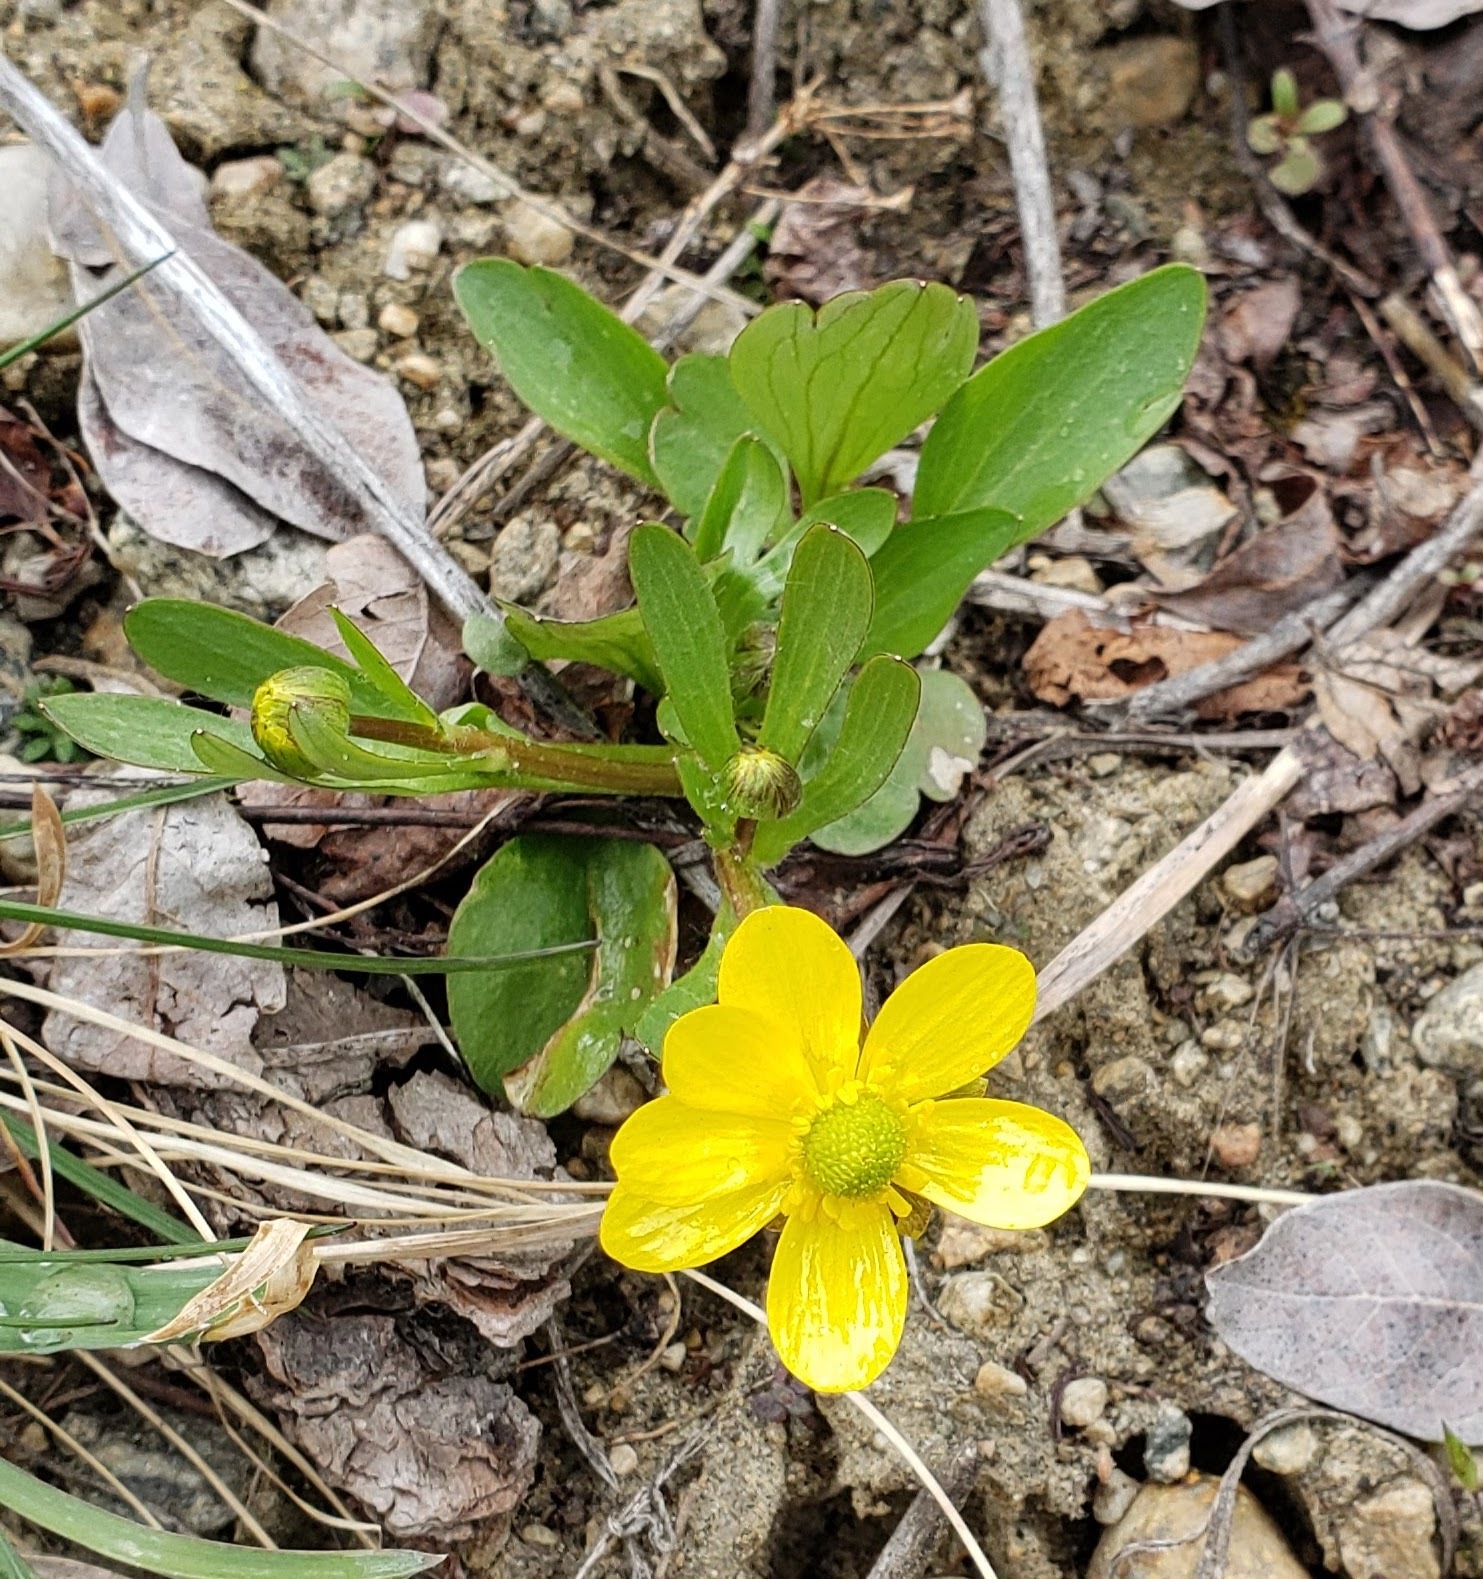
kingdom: Plantae
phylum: Tracheophyta
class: Magnoliopsida
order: Ranunculales
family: Ranunculaceae
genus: Ranunculus
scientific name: Ranunculus glaberrimus
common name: Sagebrush buttercup
